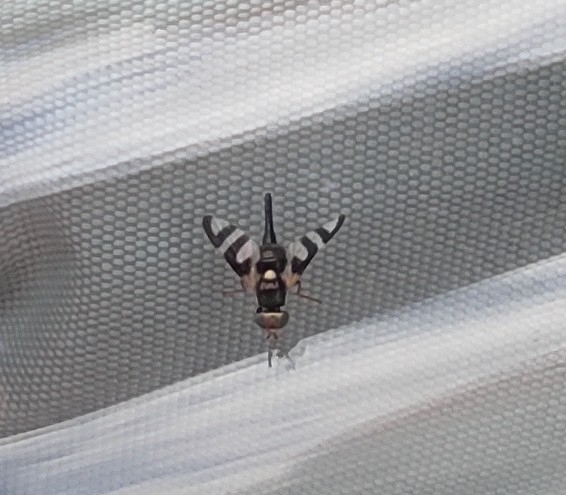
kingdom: Animalia
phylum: Arthropoda
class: Insecta
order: Diptera
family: Tephritidae
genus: Urophora
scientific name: Urophora quadrifasciata
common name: Knapweed seedhead fly
